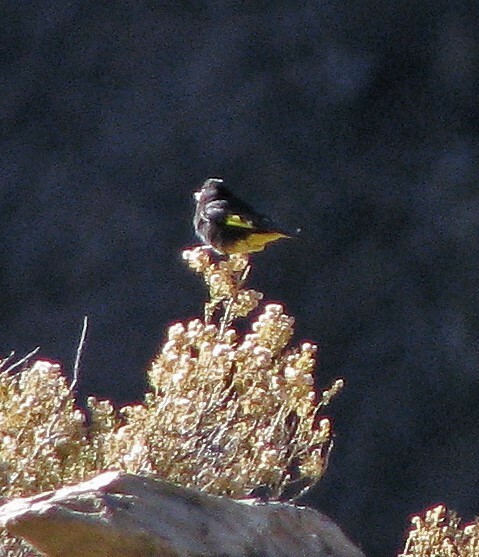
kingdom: Animalia
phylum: Chordata
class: Aves
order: Passeriformes
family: Fringillidae
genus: Spinus
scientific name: Spinus atratus
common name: Black siskin
